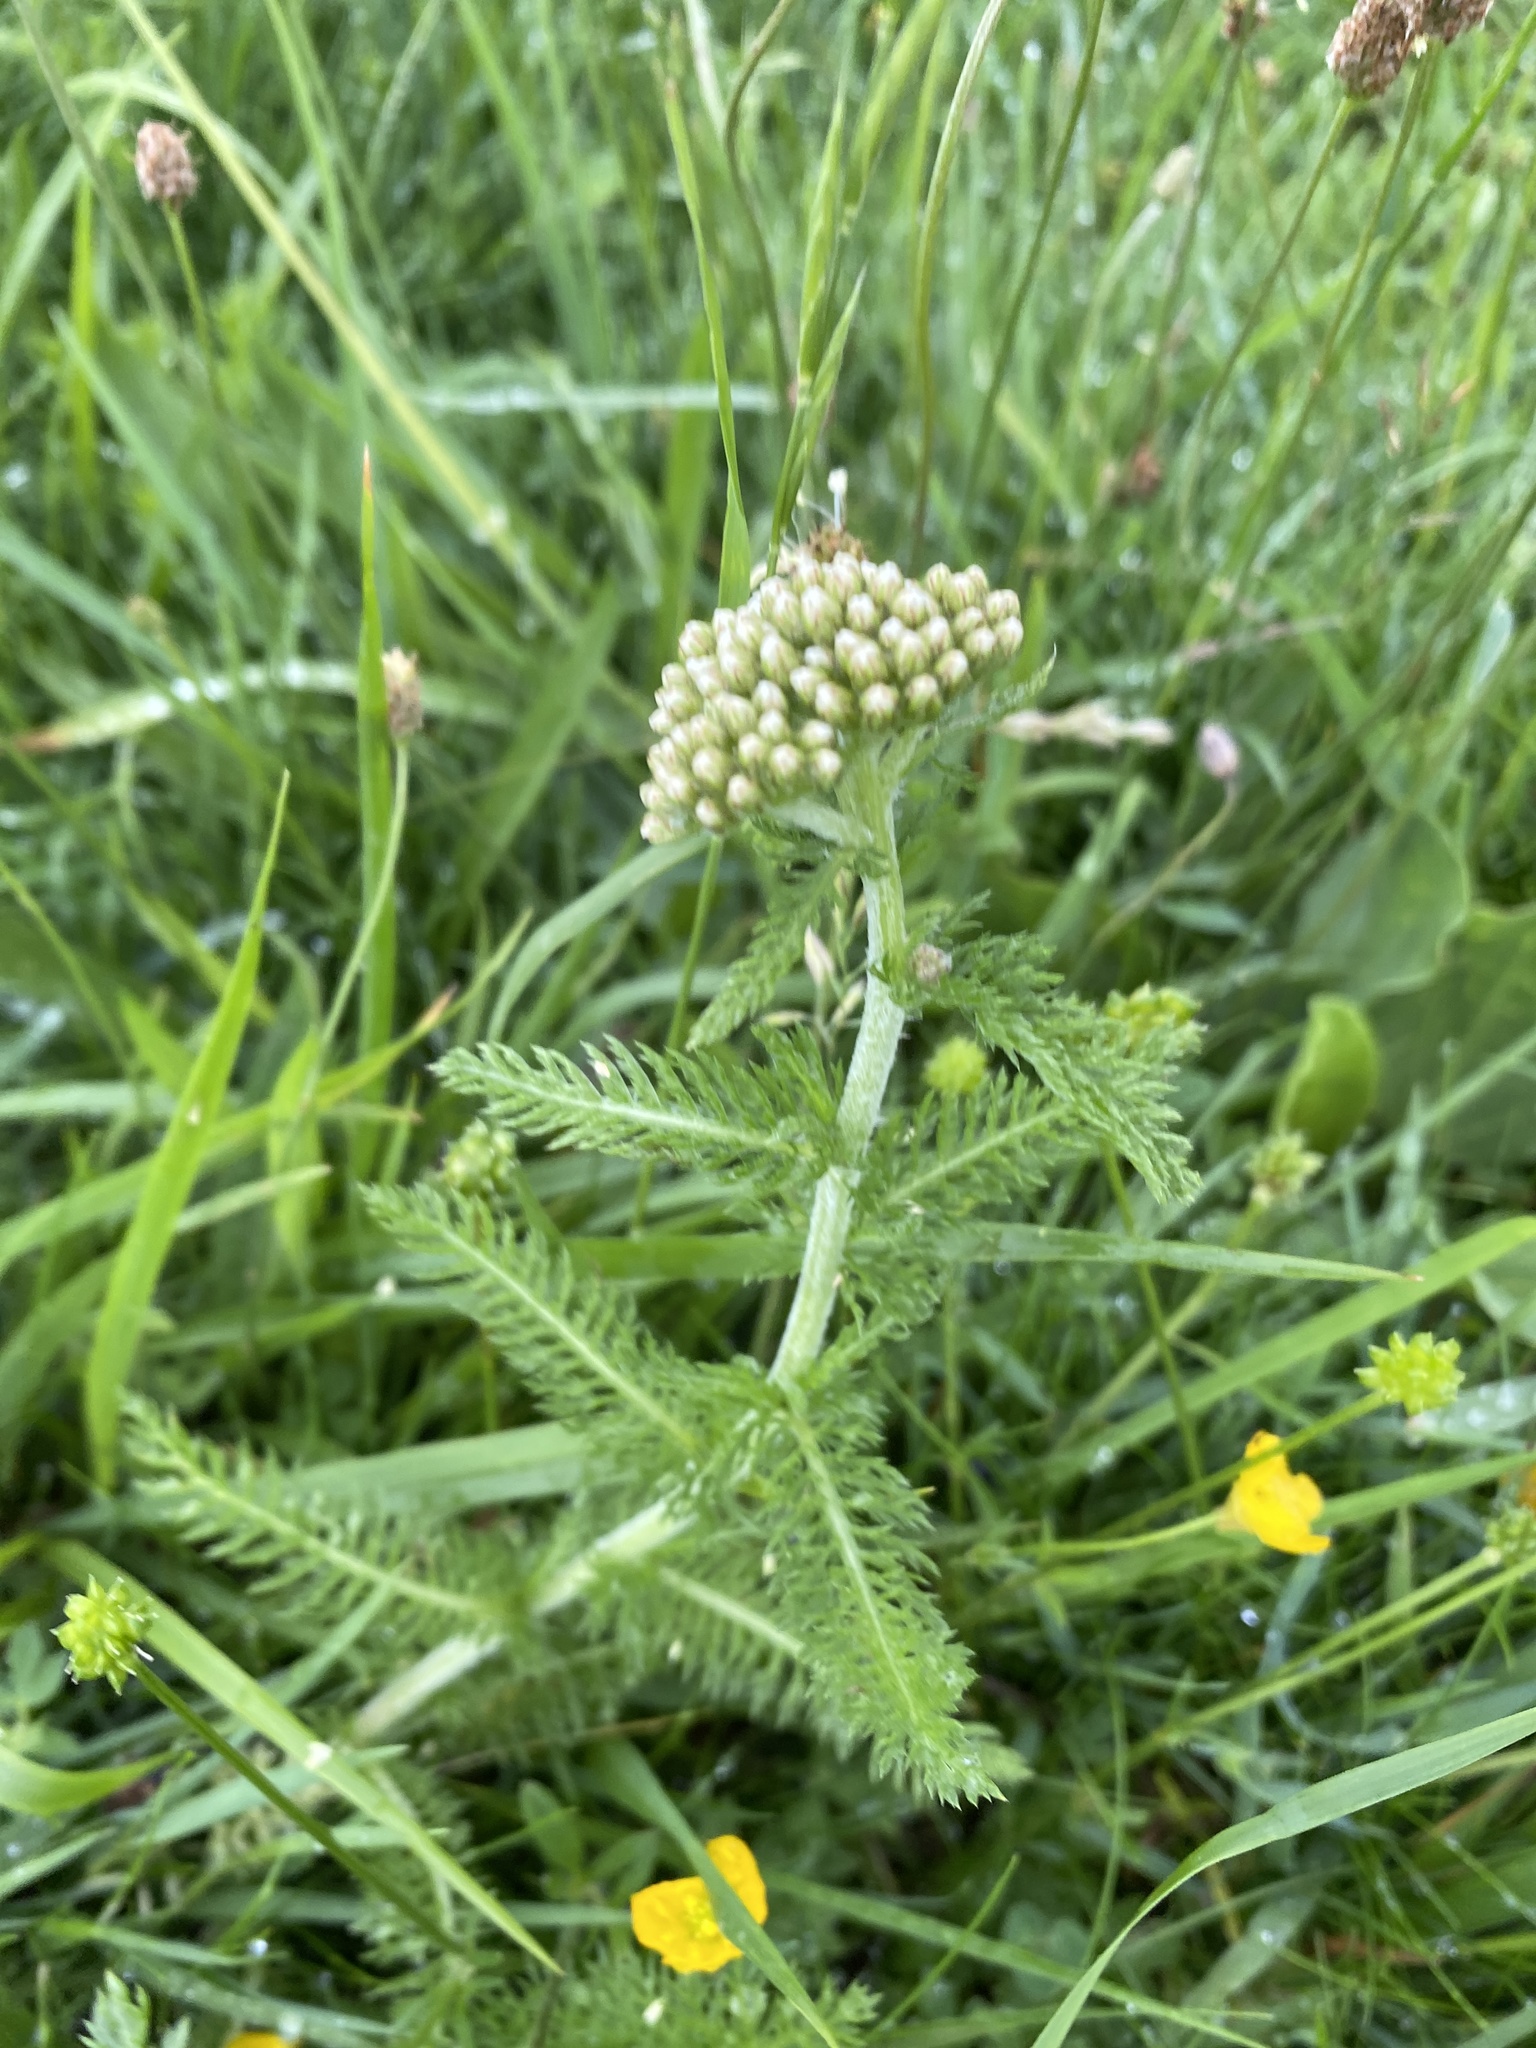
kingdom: Plantae
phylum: Tracheophyta
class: Magnoliopsida
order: Asterales
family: Asteraceae
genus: Achillea
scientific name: Achillea millefolium
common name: Yarrow
